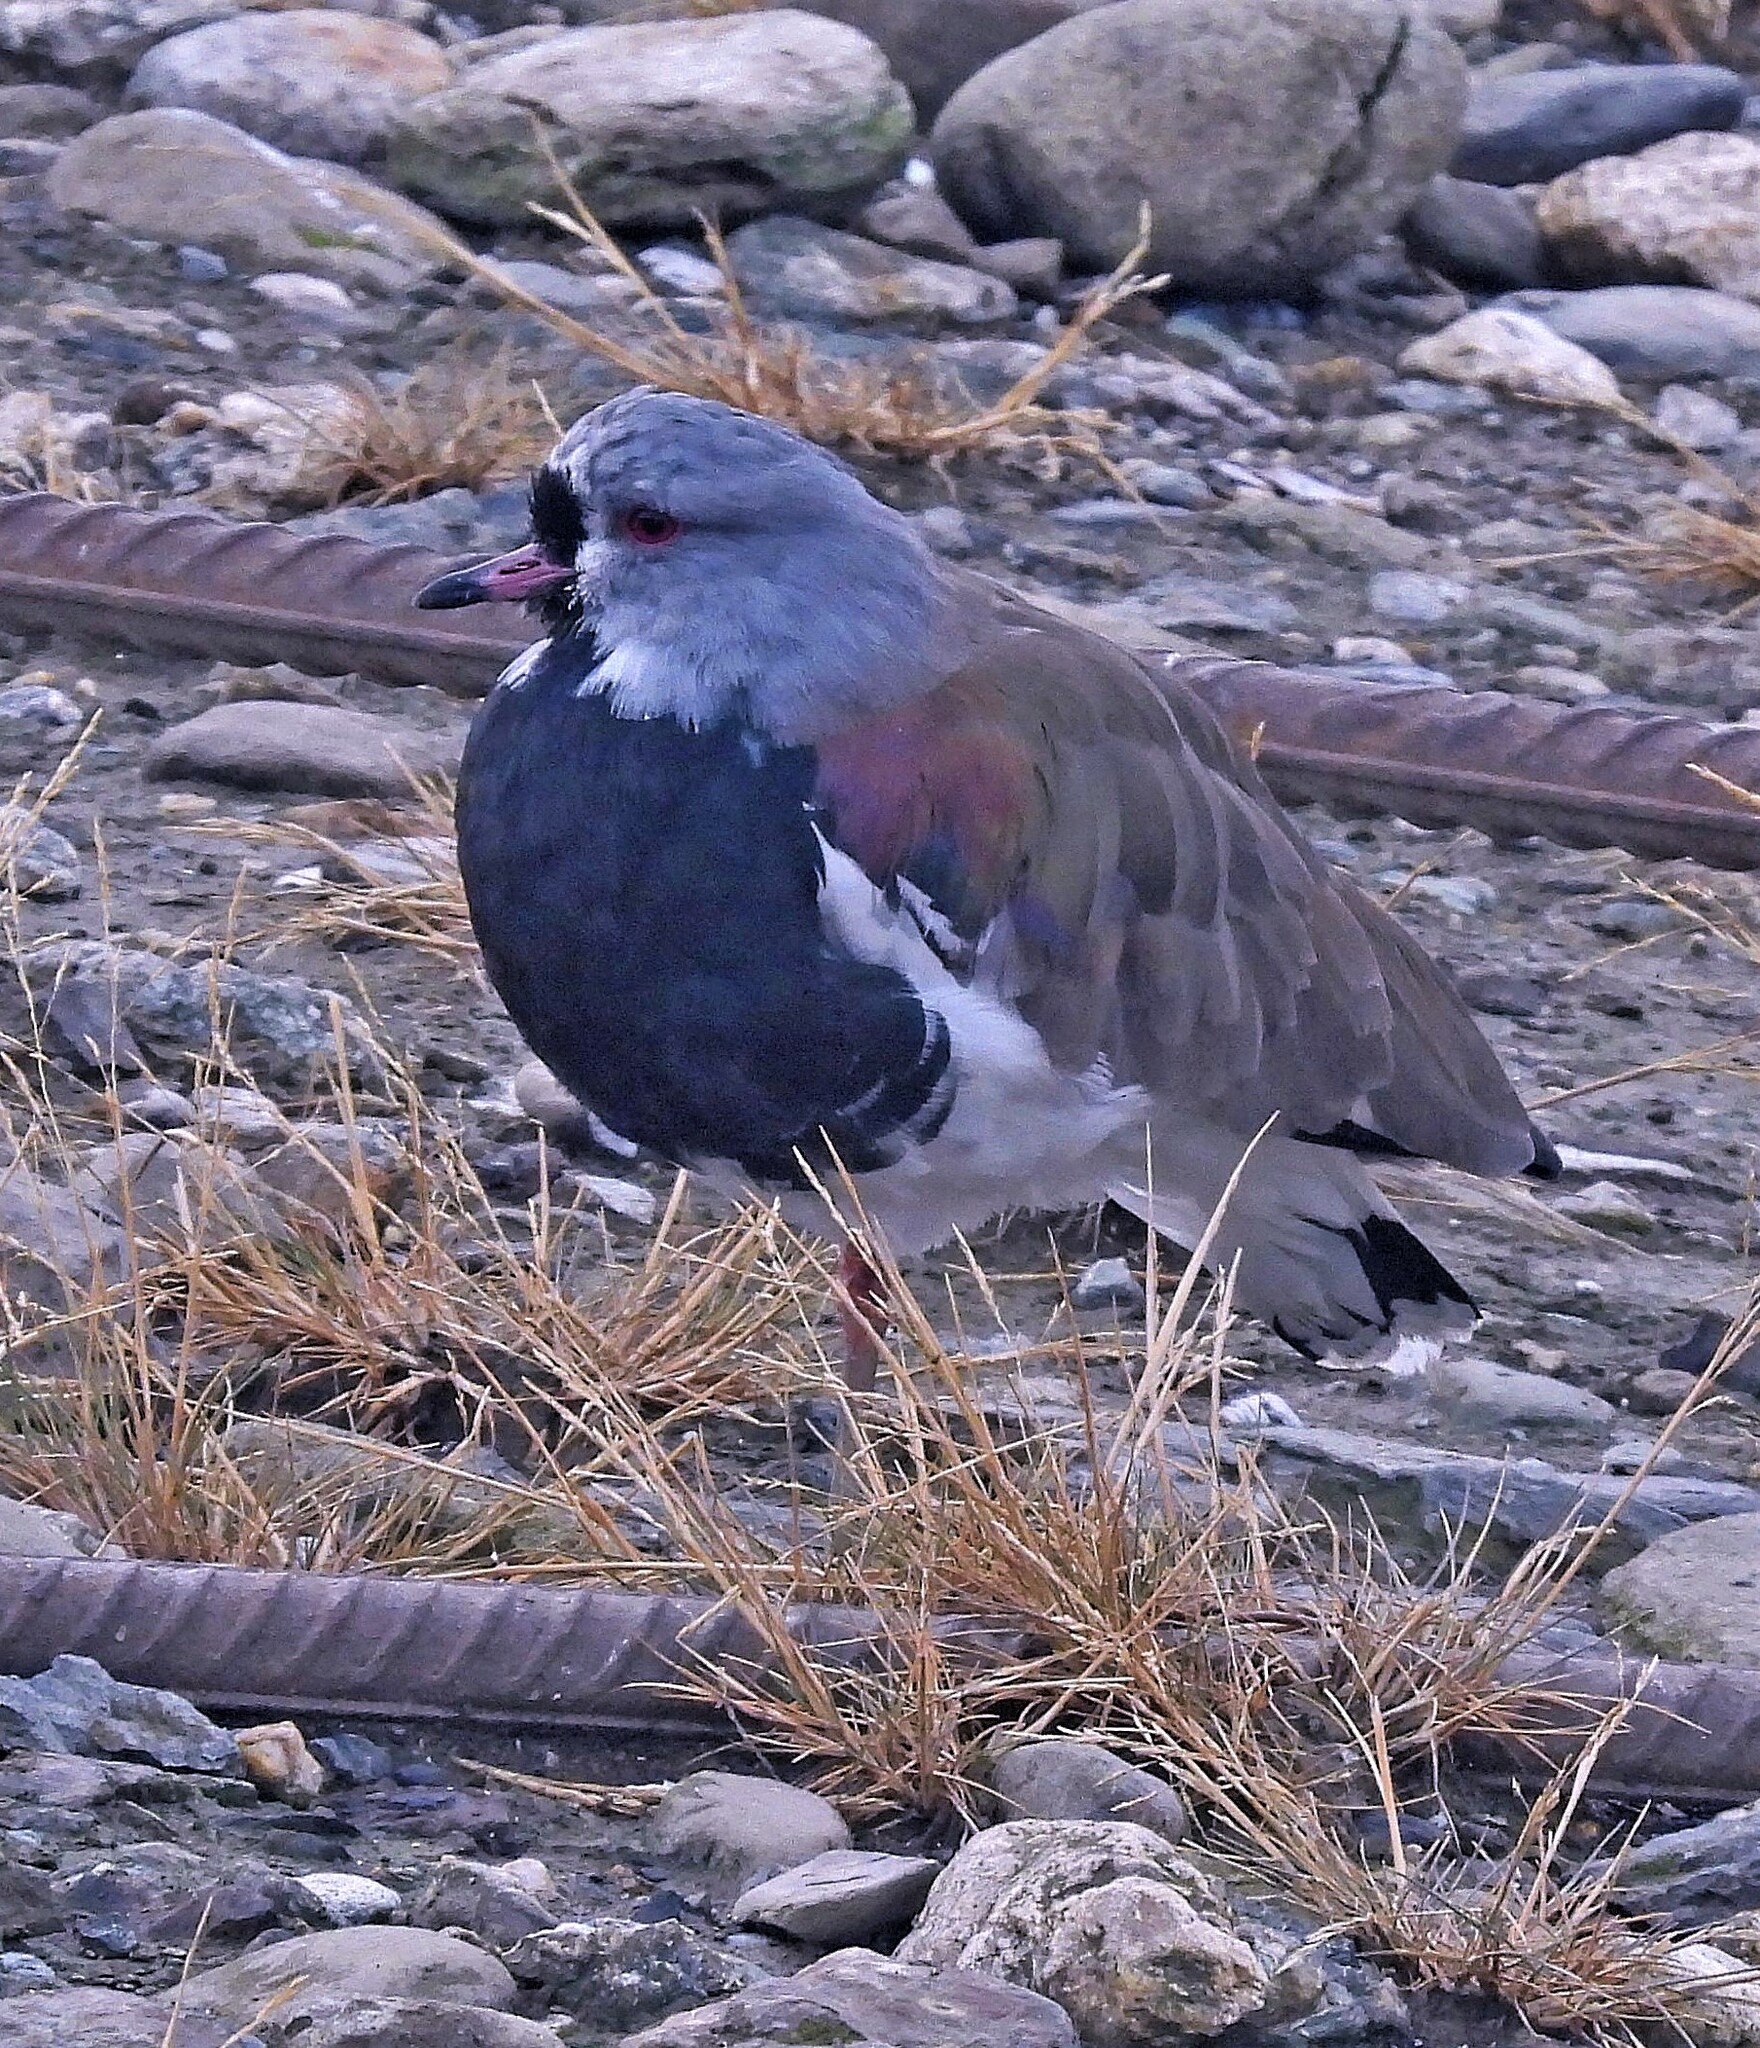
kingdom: Animalia
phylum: Chordata
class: Aves
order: Charadriiformes
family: Charadriidae
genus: Vanellus
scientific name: Vanellus chilensis
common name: Southern lapwing
